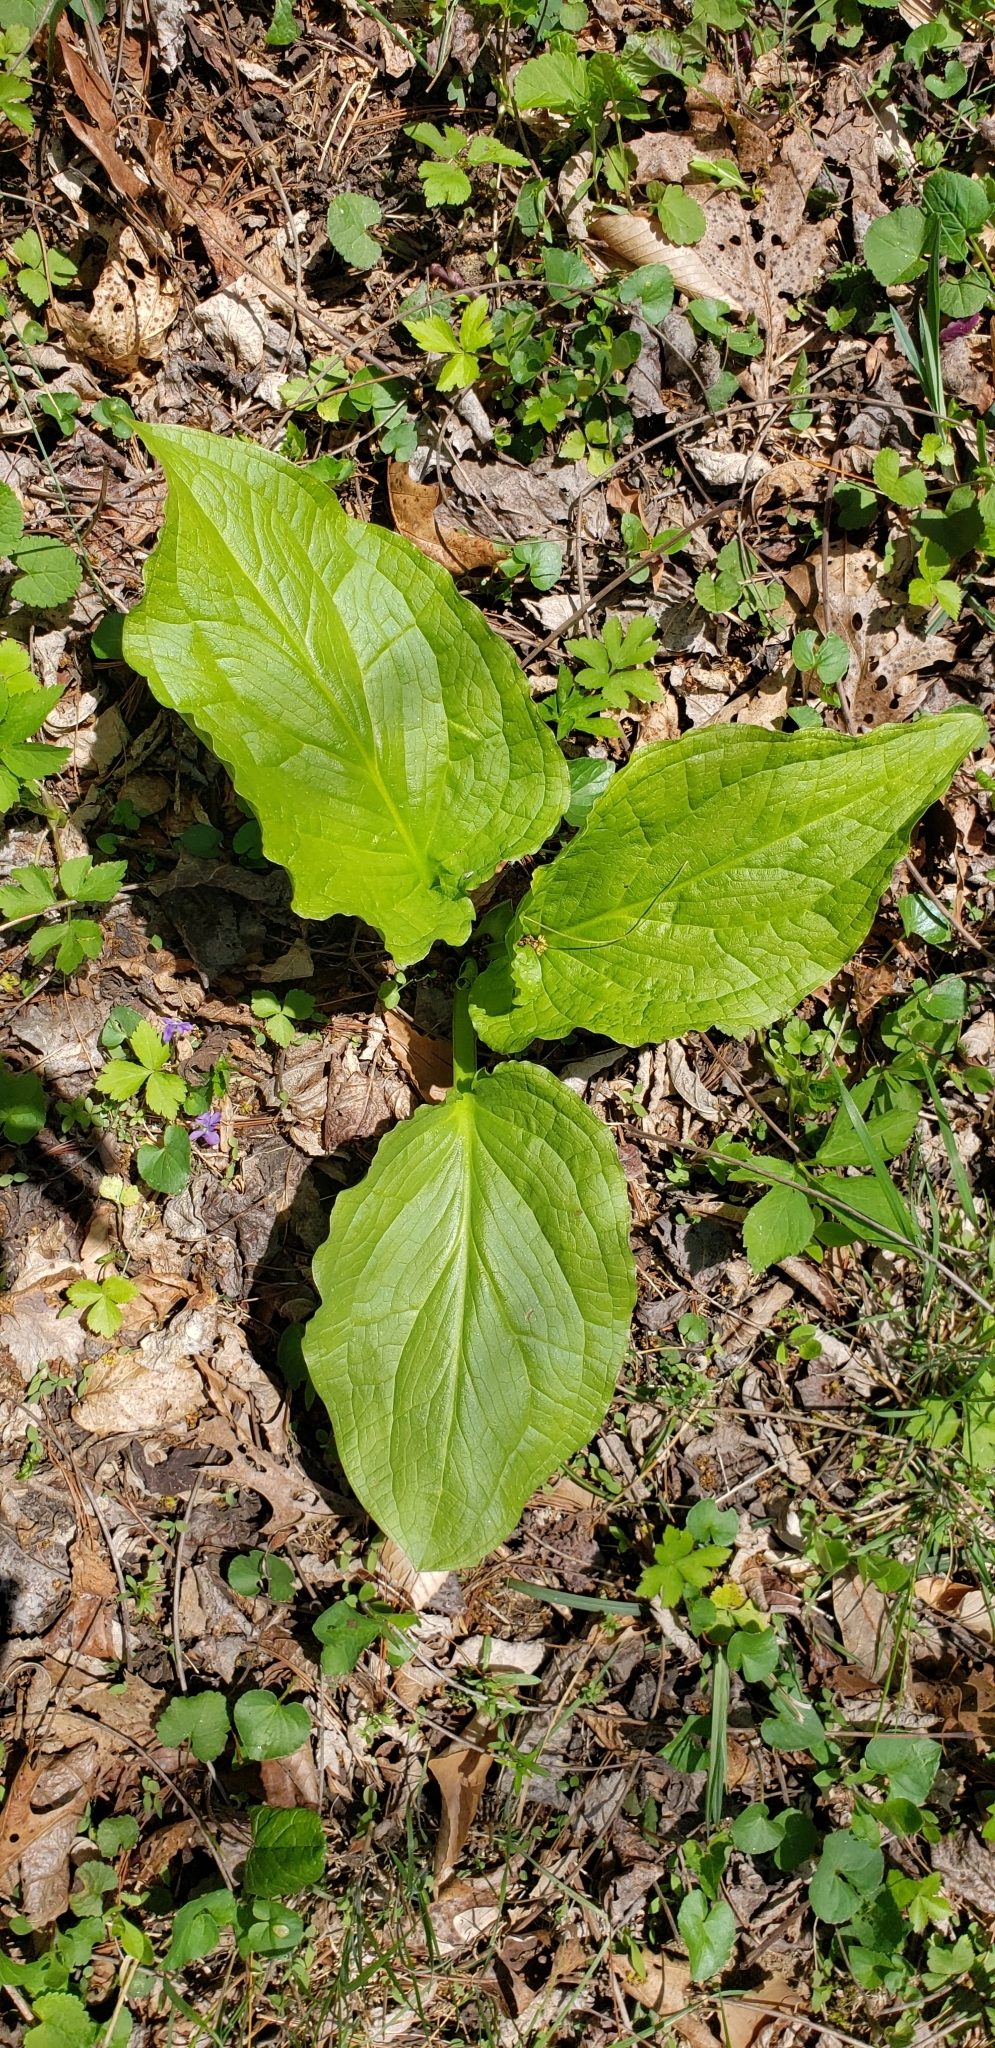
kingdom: Plantae
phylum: Tracheophyta
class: Liliopsida
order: Alismatales
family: Araceae
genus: Symplocarpus
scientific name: Symplocarpus foetidus
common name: Eastern skunk cabbage
